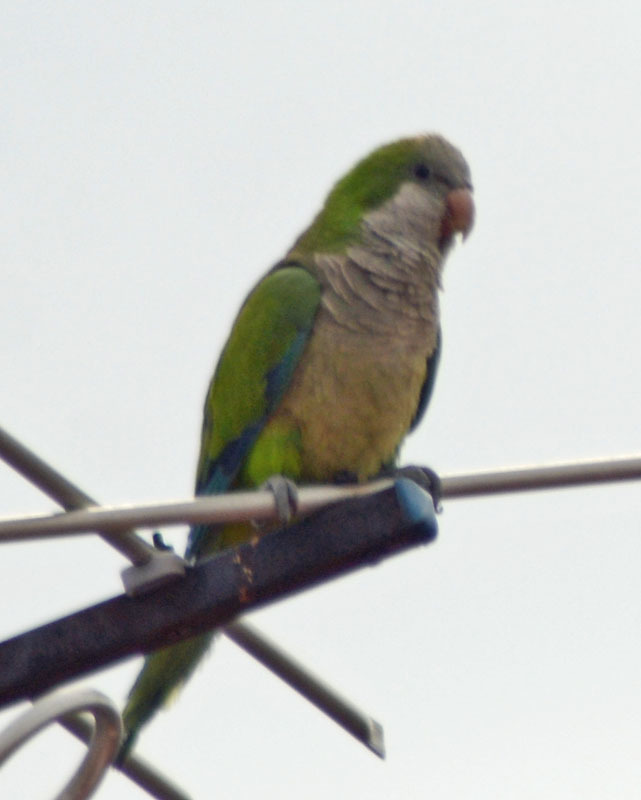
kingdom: Animalia
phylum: Chordata
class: Aves
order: Psittaciformes
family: Psittacidae
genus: Myiopsitta
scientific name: Myiopsitta monachus
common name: Monk parakeet
